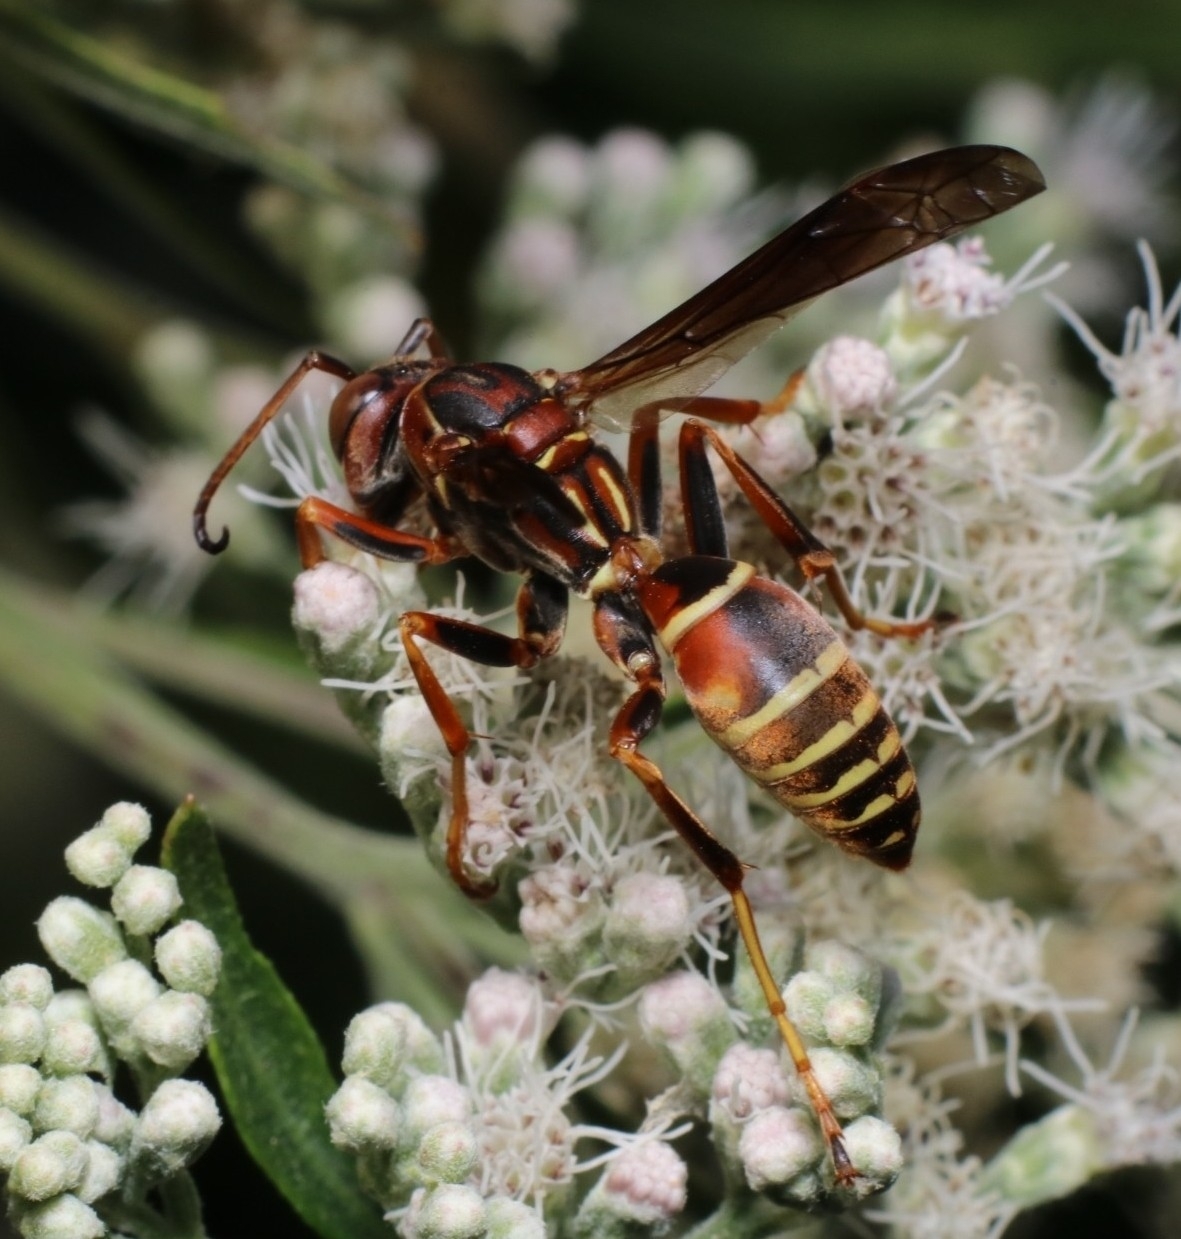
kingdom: Animalia
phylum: Arthropoda
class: Insecta
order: Hymenoptera
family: Eumenidae
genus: Polistes
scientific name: Polistes fuscatus
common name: Dark paper wasp
